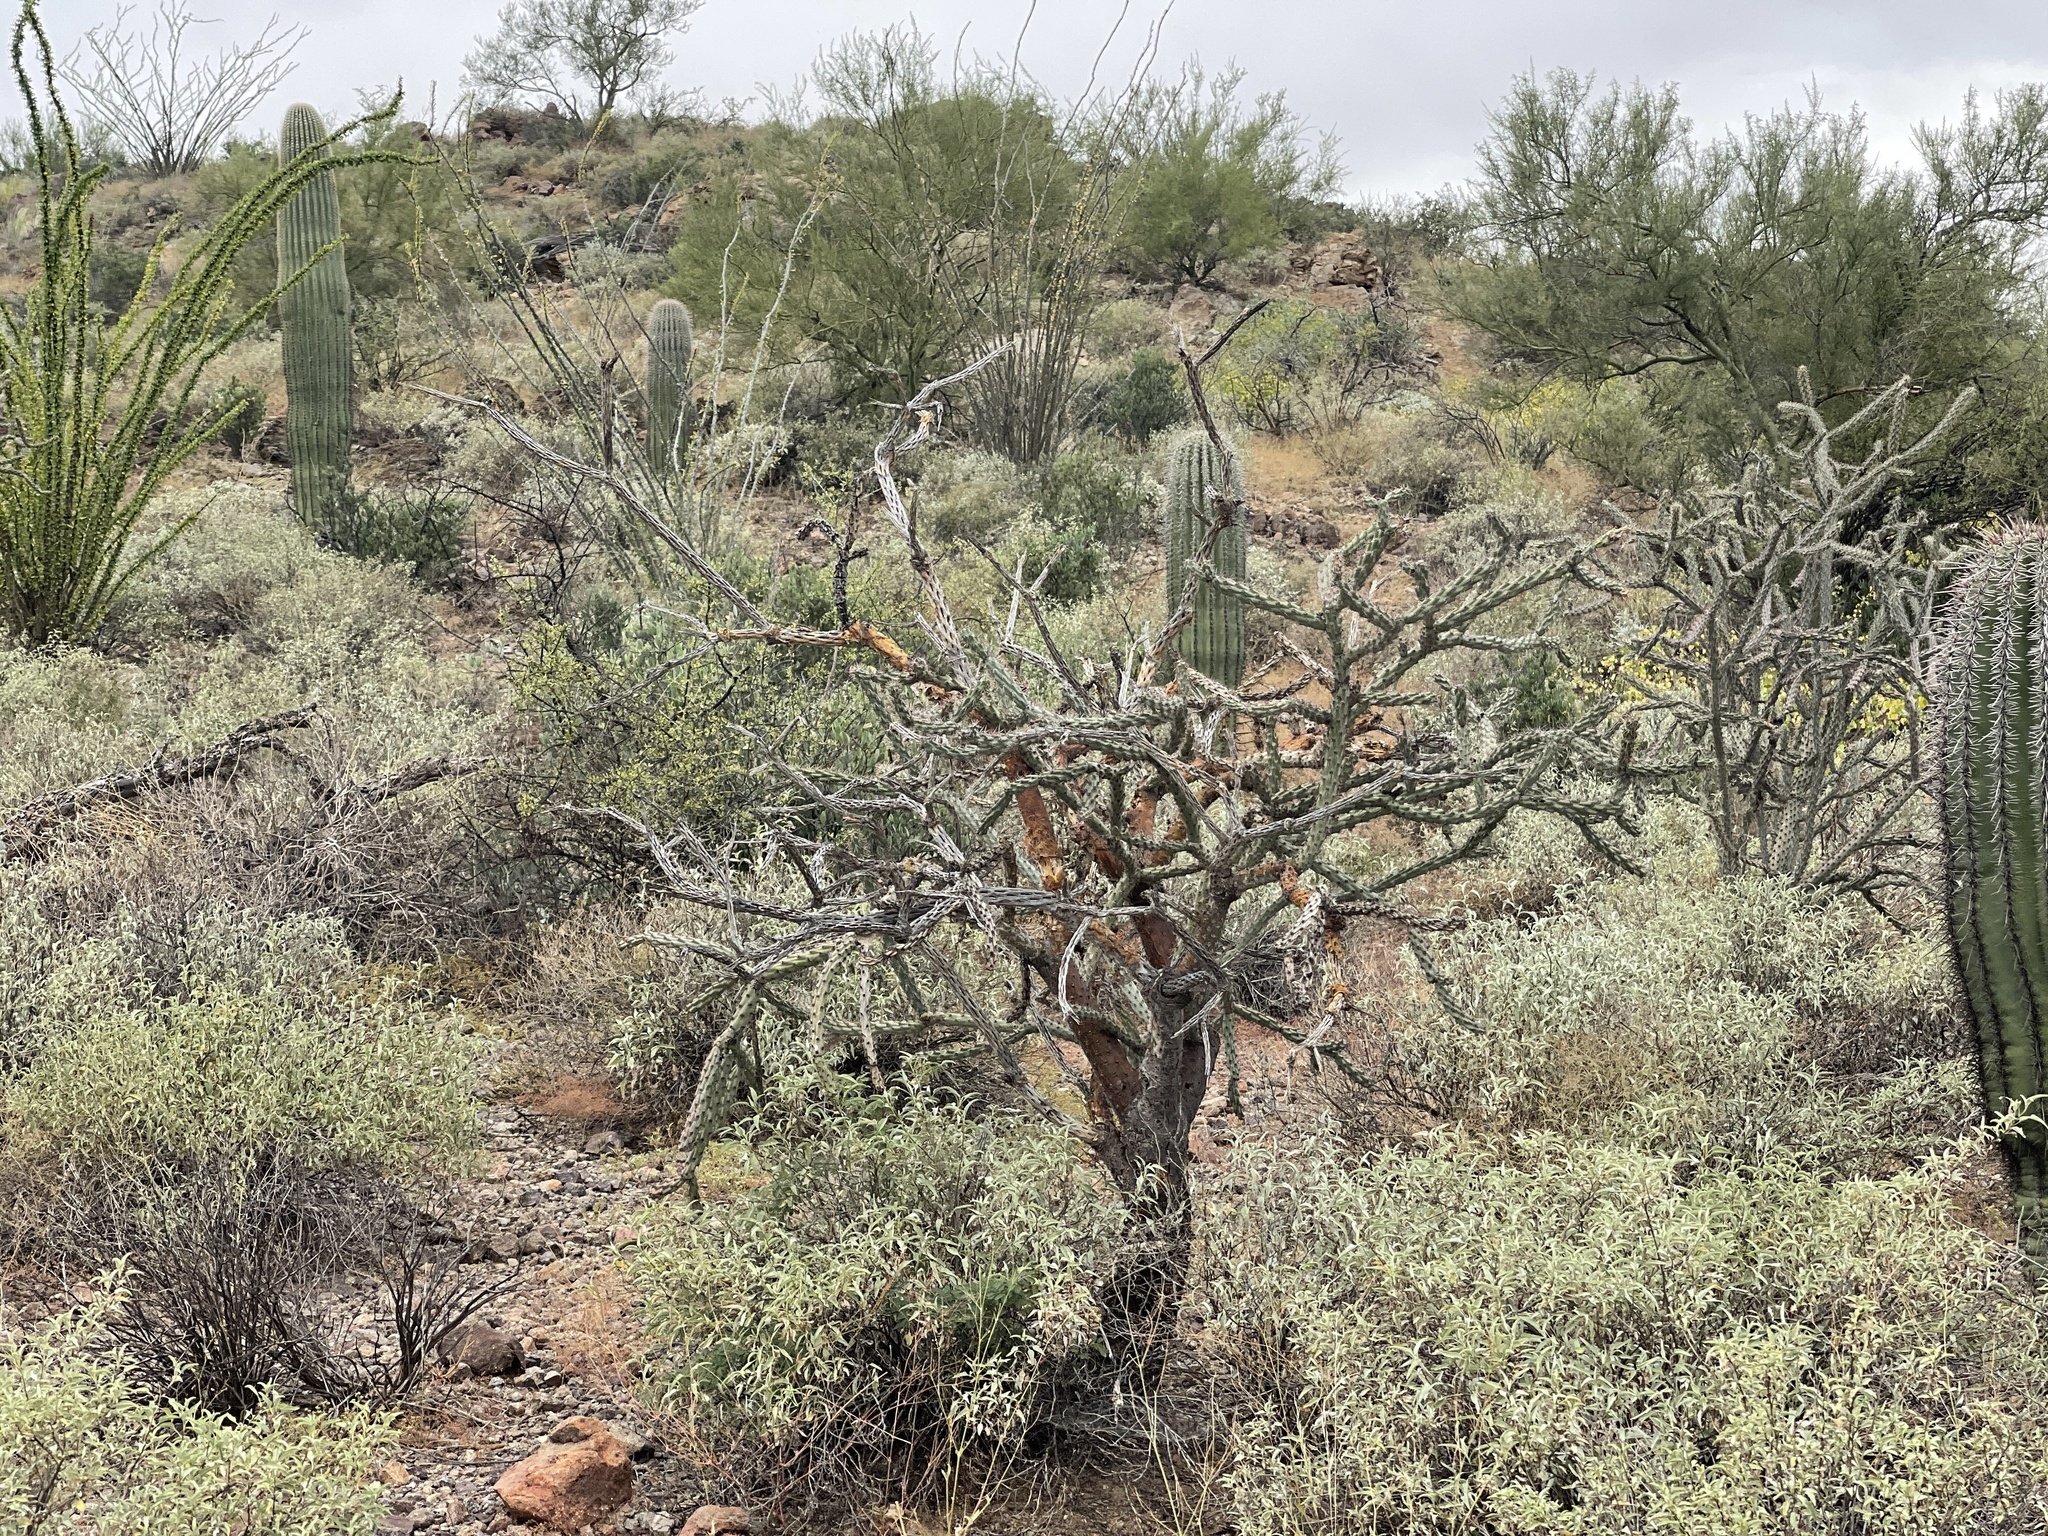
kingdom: Plantae
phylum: Tracheophyta
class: Magnoliopsida
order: Caryophyllales
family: Cactaceae
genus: Cylindropuntia
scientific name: Cylindropuntia thurberi
